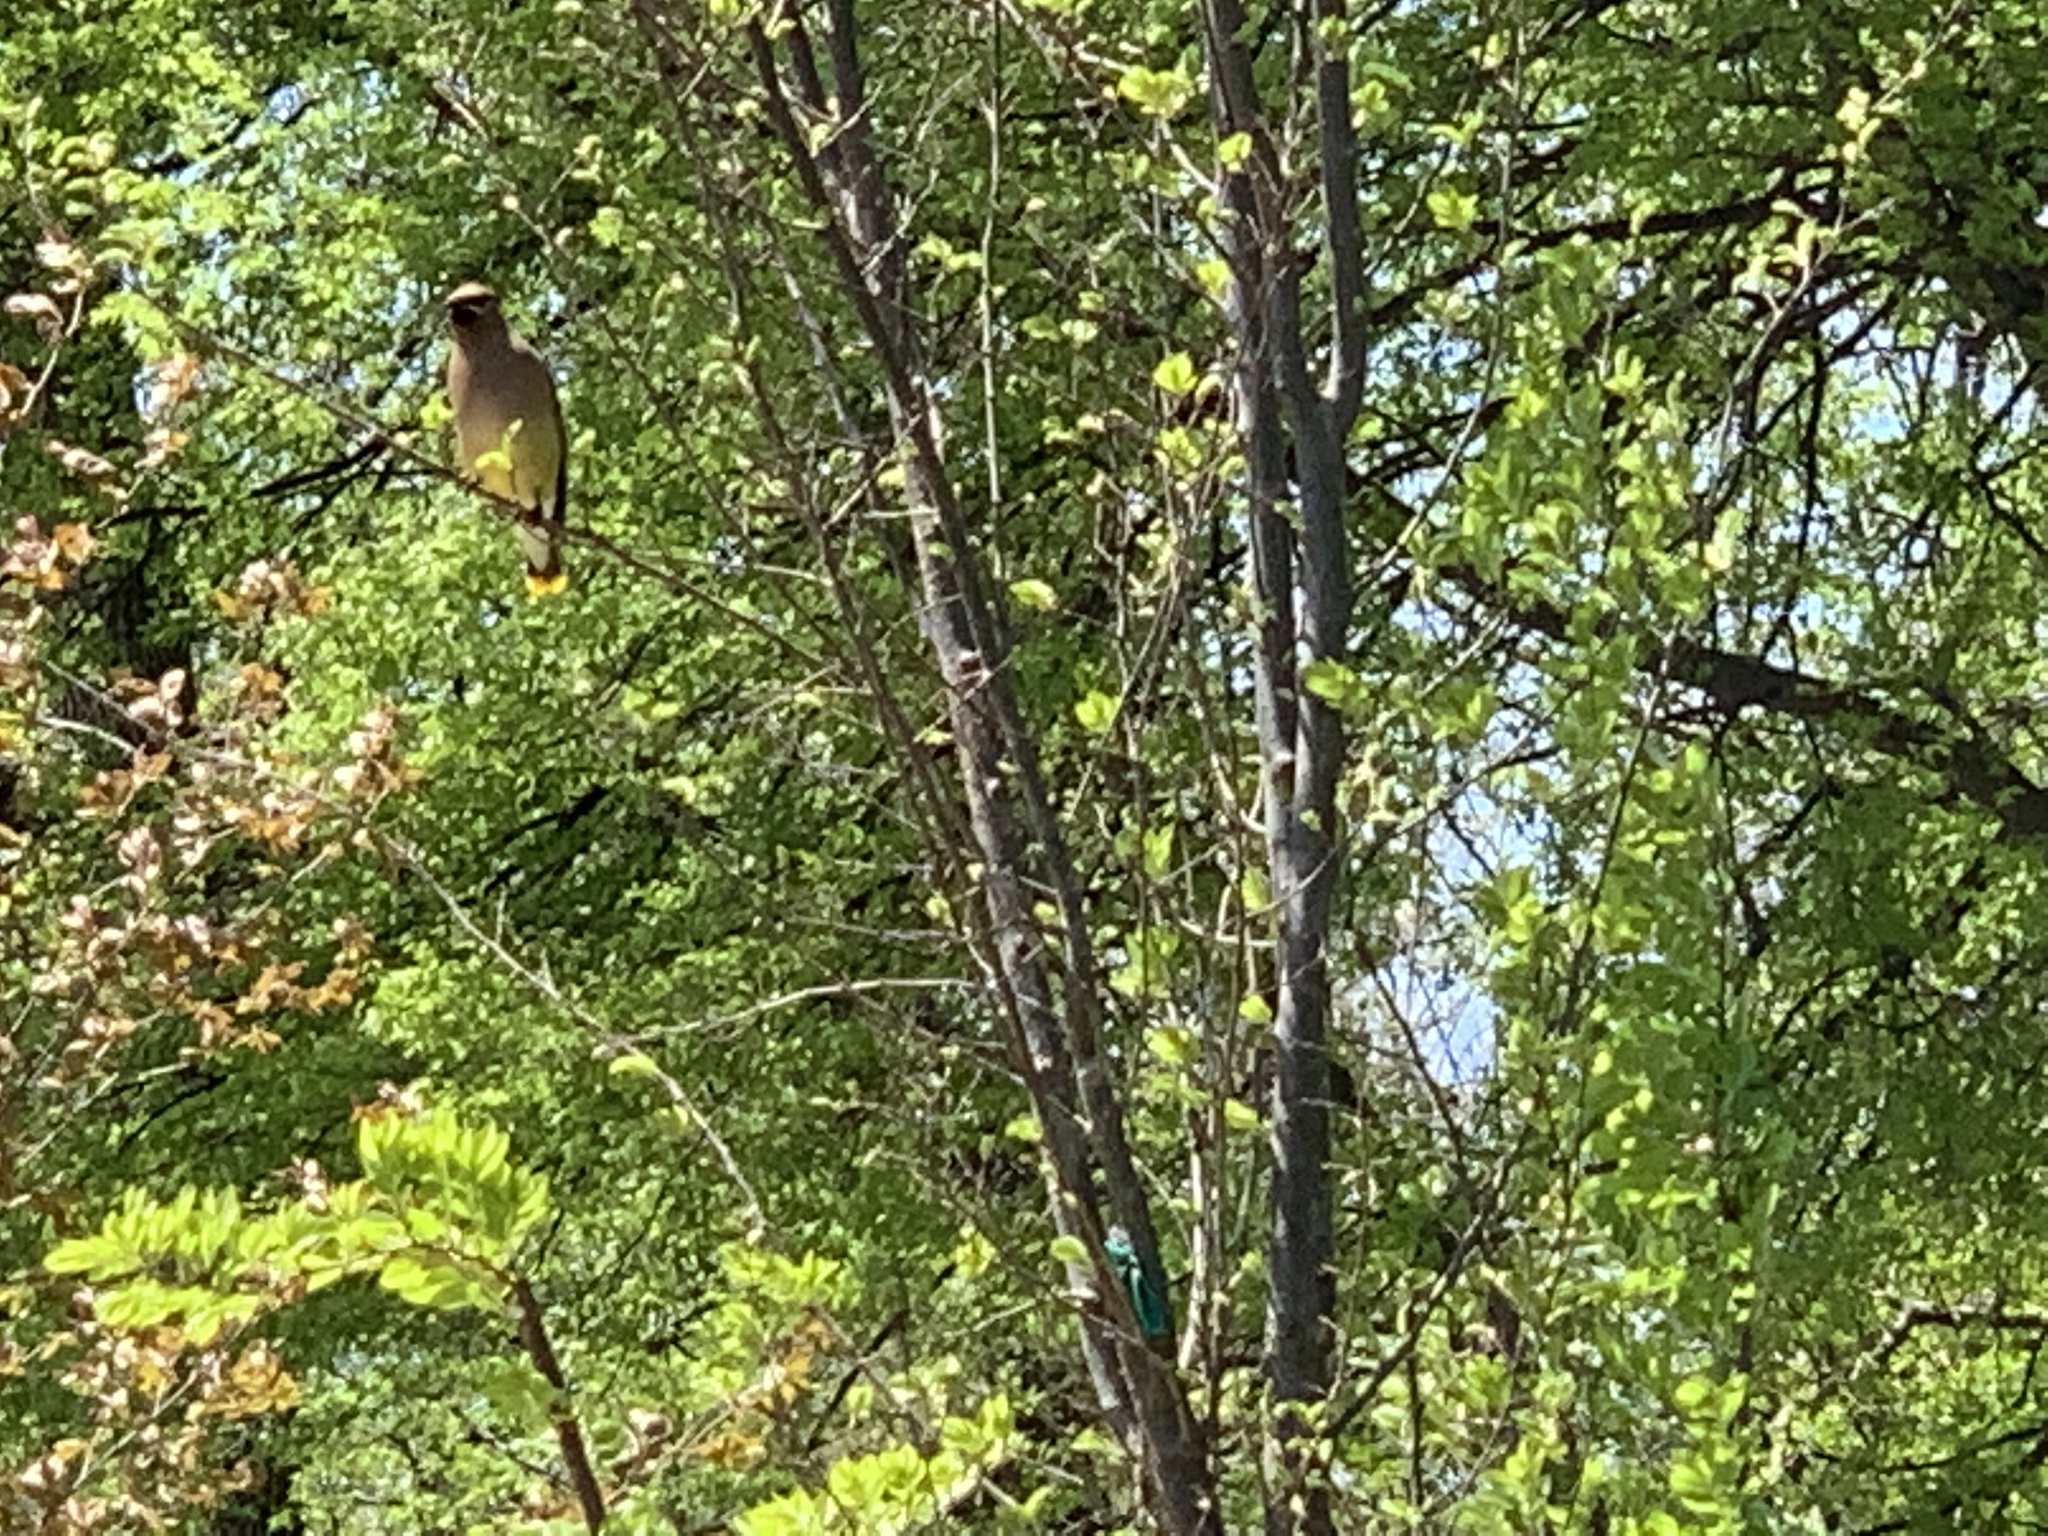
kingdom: Animalia
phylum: Chordata
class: Aves
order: Passeriformes
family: Bombycillidae
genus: Bombycilla
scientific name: Bombycilla cedrorum
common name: Cedar waxwing
